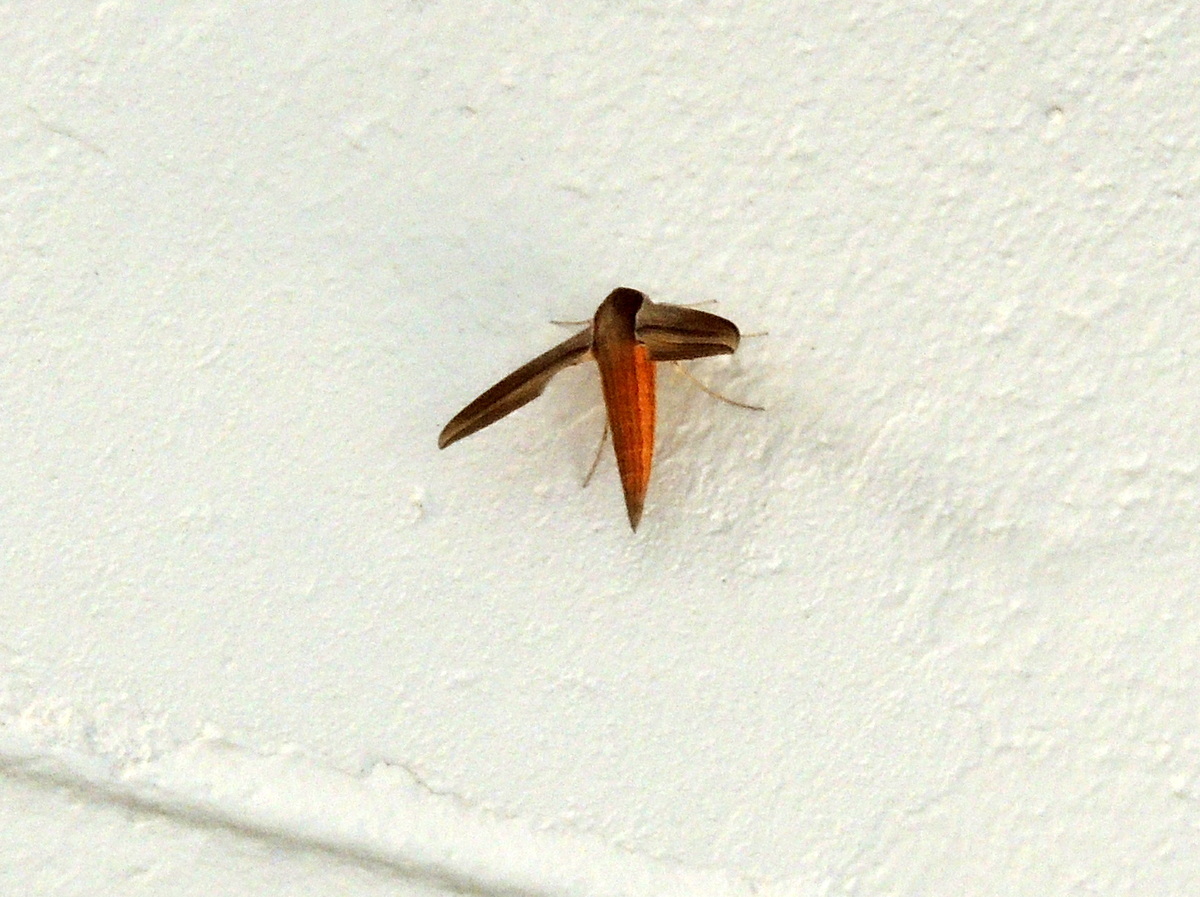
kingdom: Animalia
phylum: Arthropoda
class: Insecta
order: Lepidoptera
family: Sphingidae
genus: Xylophanes
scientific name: Xylophanes tersa
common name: Tersa sphinx
